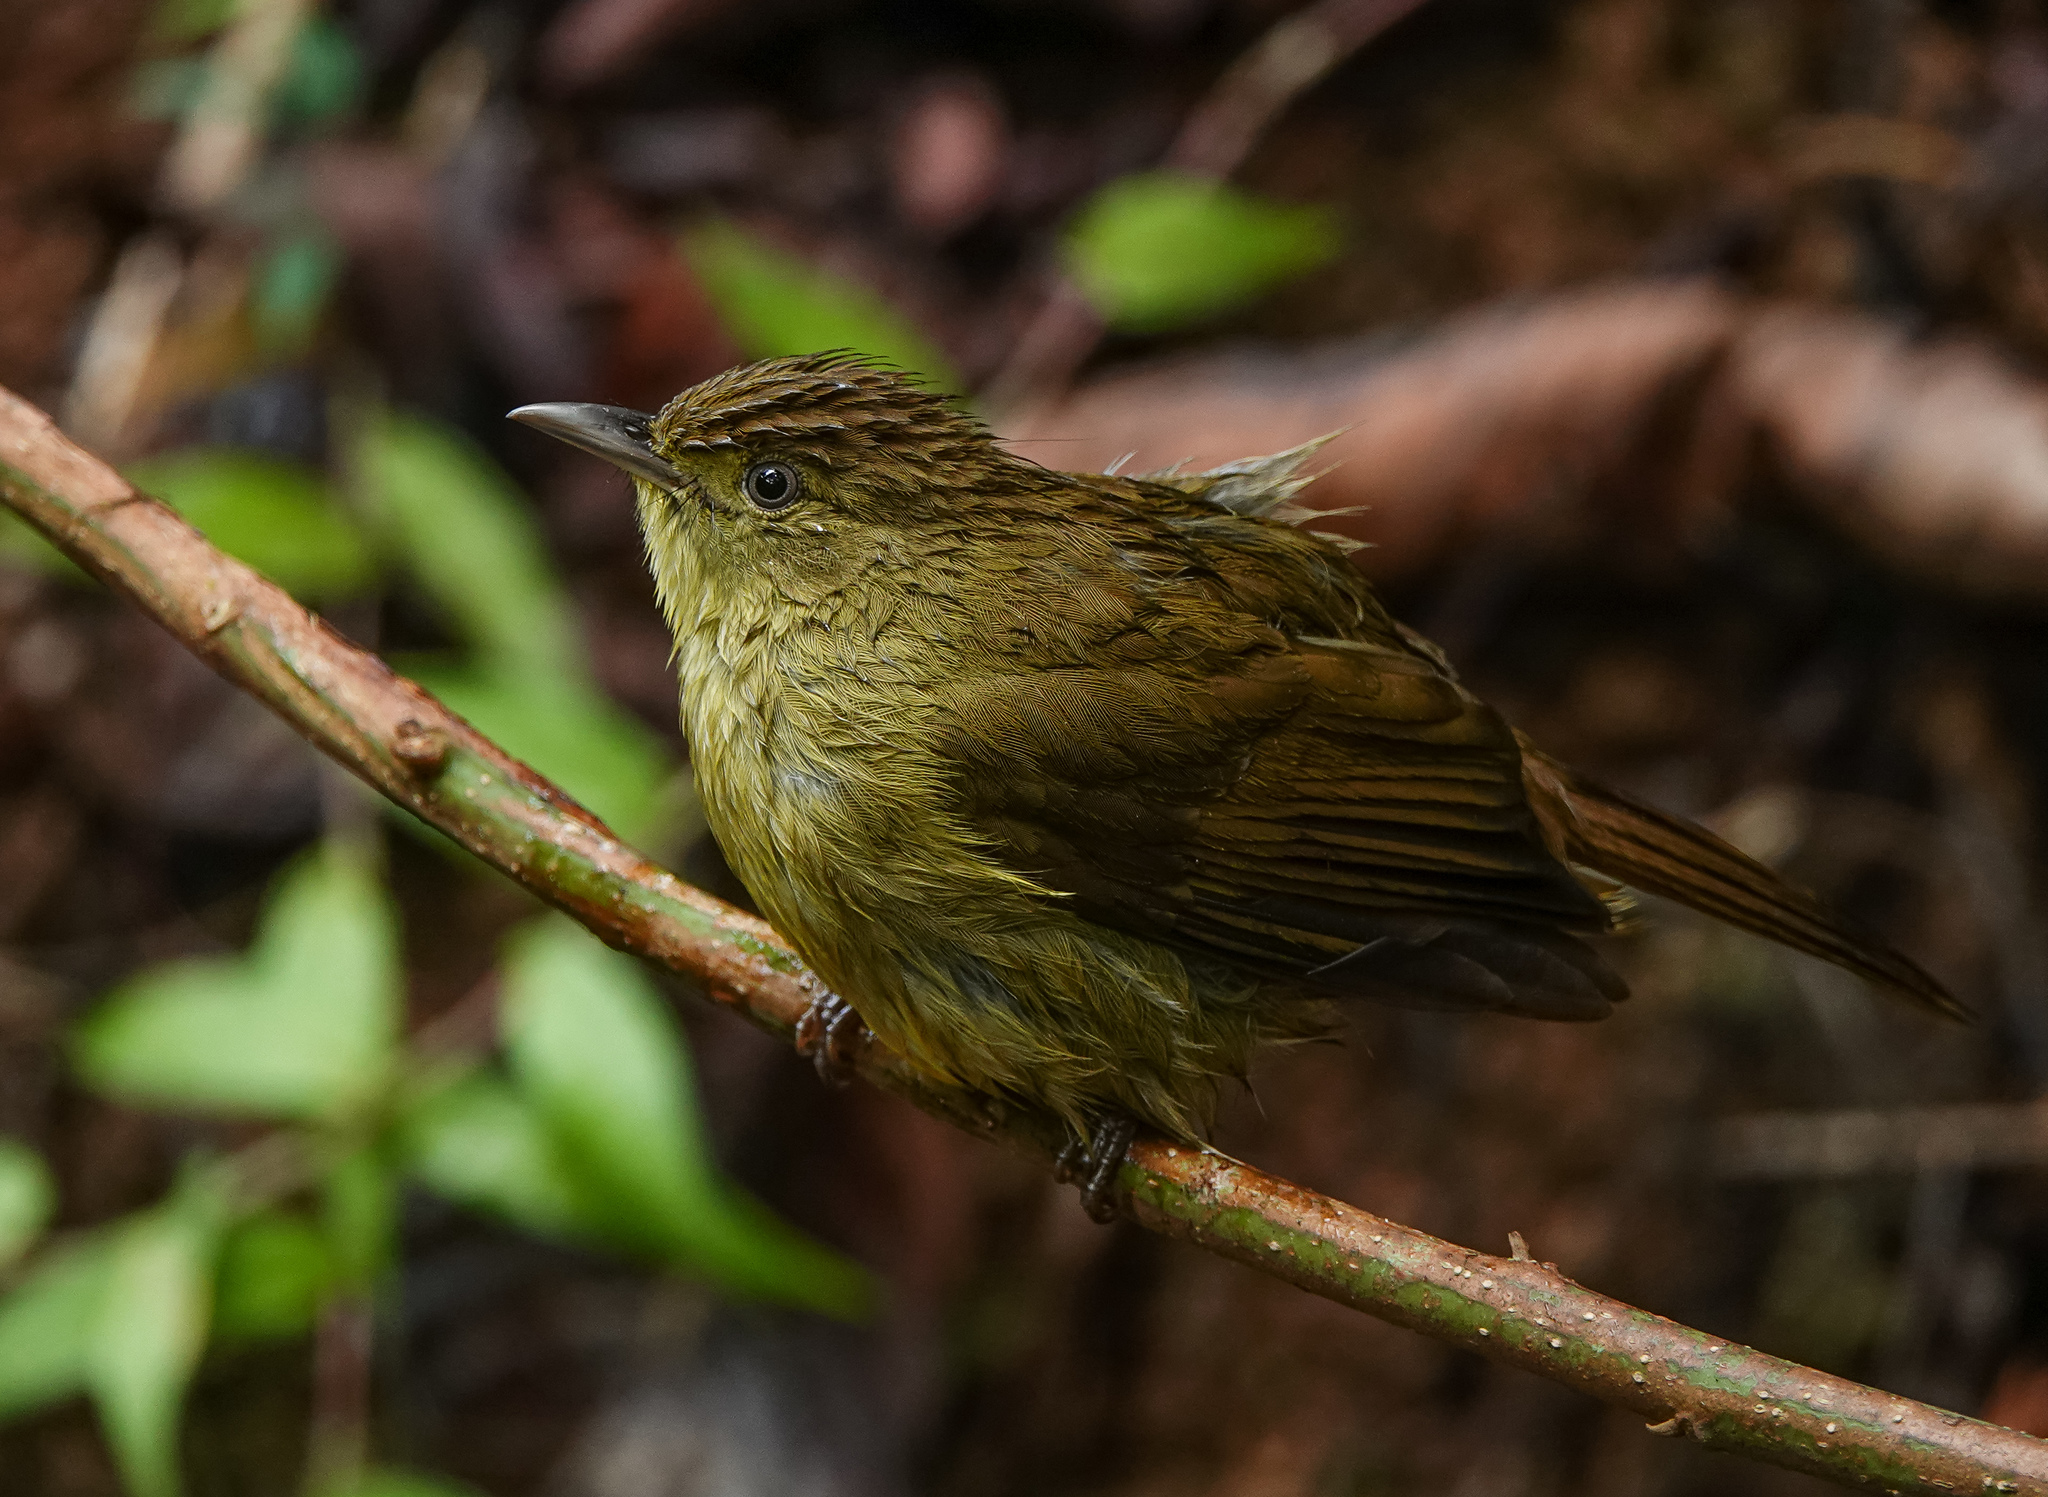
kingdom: Animalia
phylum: Chordata
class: Aves
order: Passeriformes
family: Pycnonotidae
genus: Iole
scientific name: Iole virescens
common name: Olive bulbul
